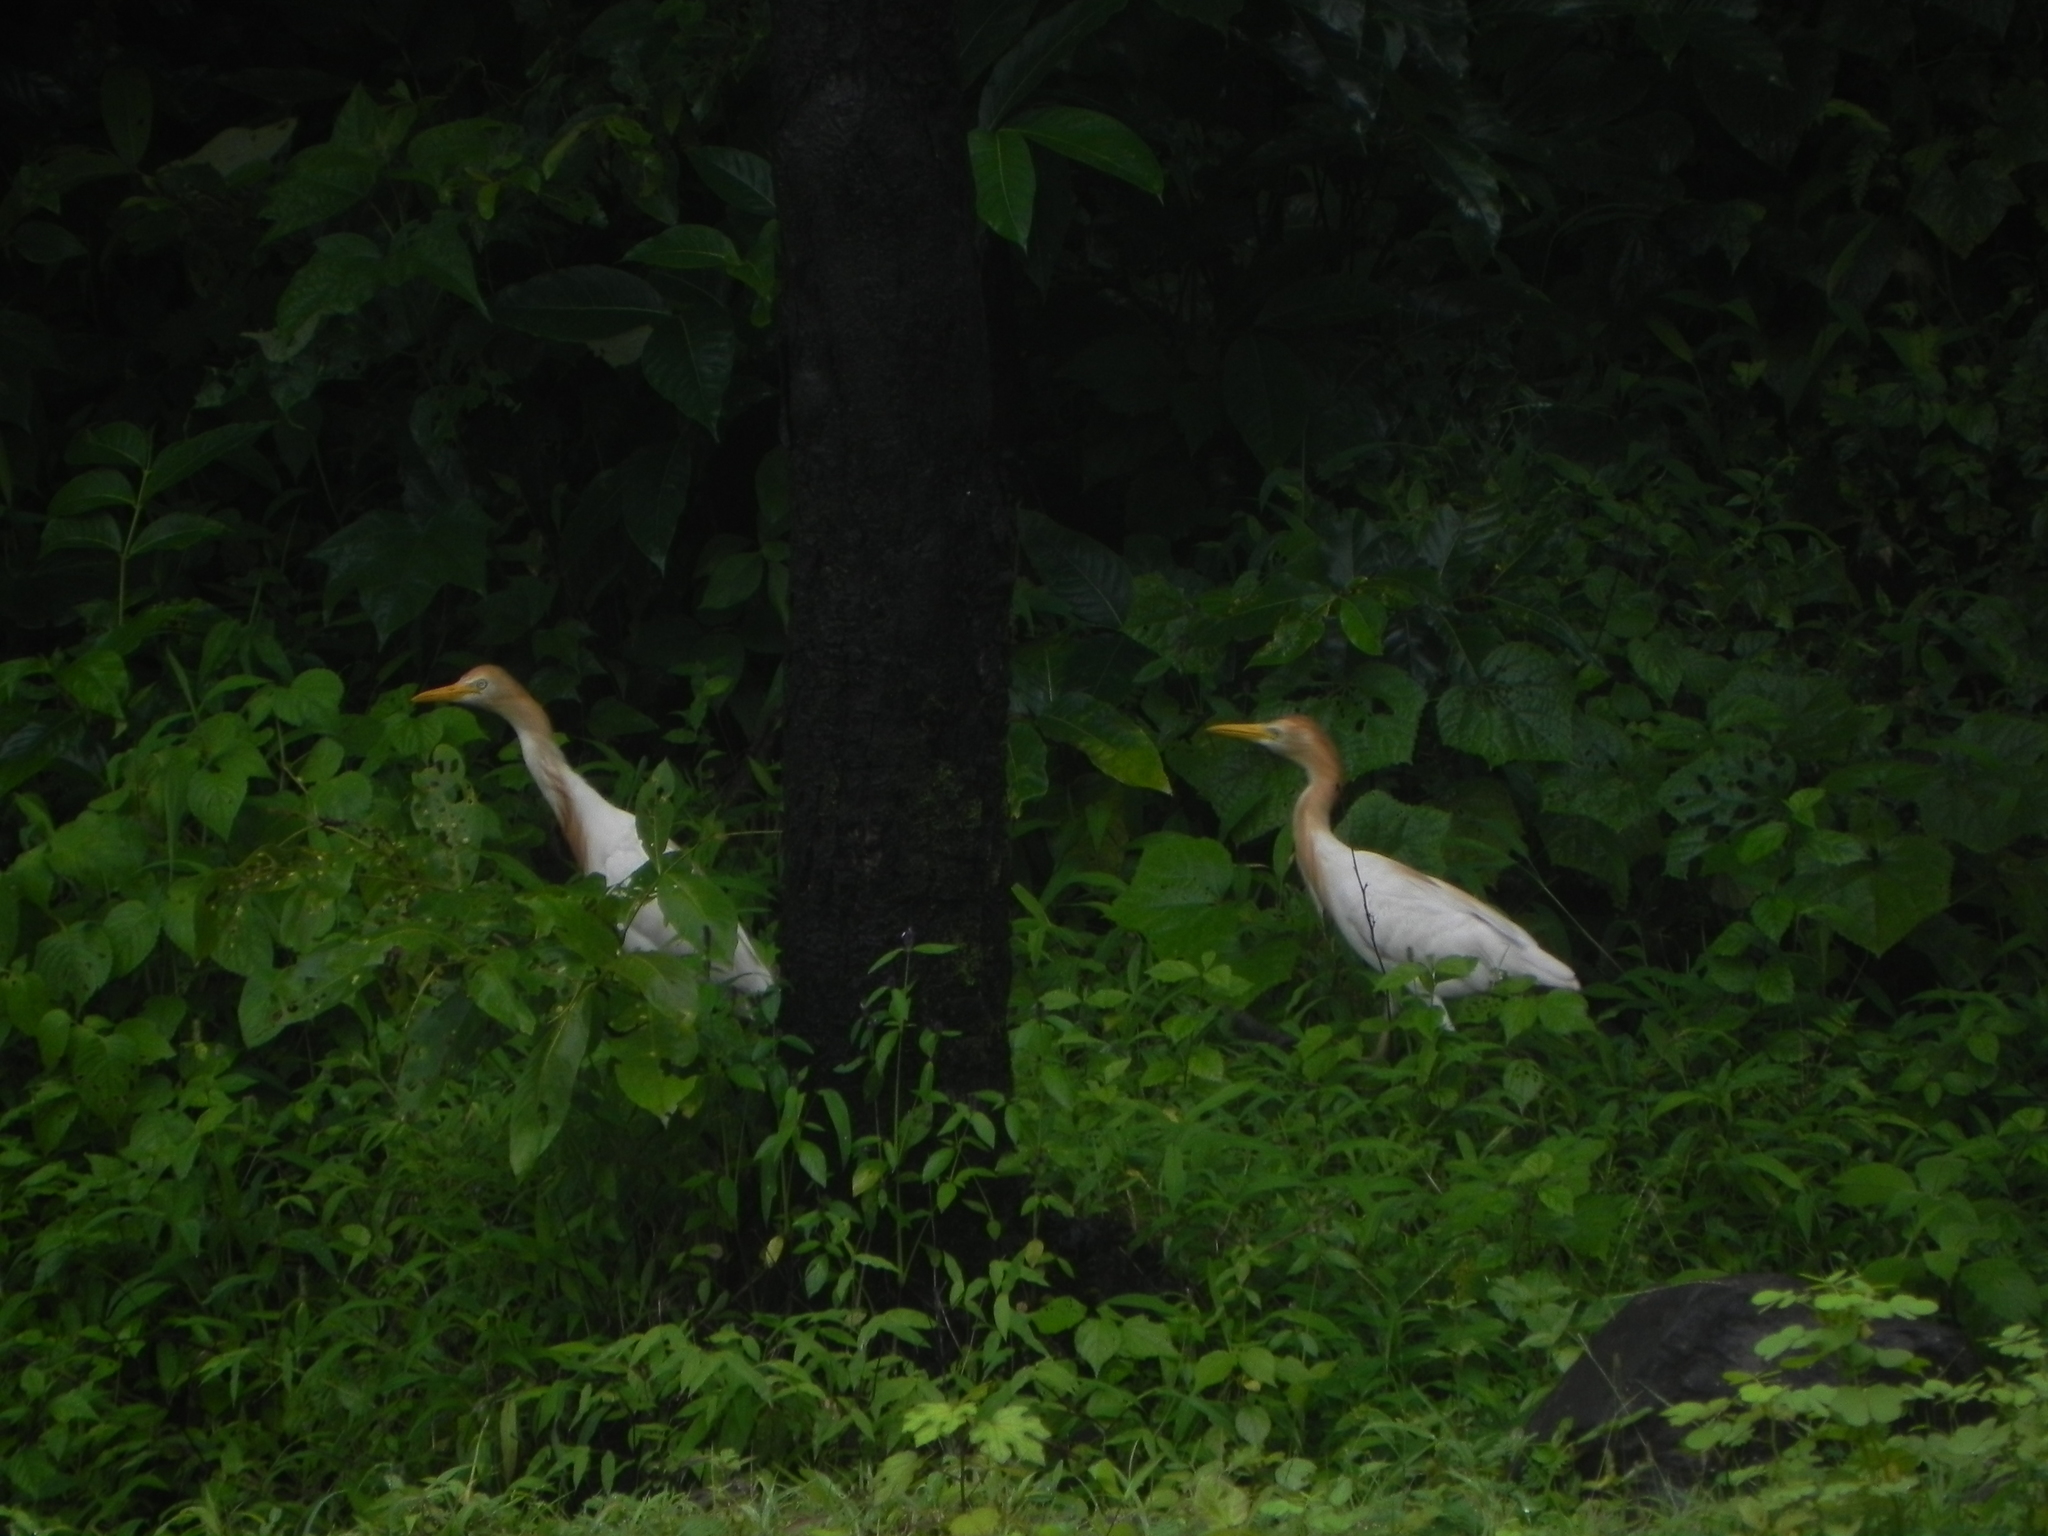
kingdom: Animalia
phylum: Chordata
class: Aves
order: Pelecaniformes
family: Ardeidae
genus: Bubulcus
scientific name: Bubulcus coromandus
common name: Eastern cattle egret
